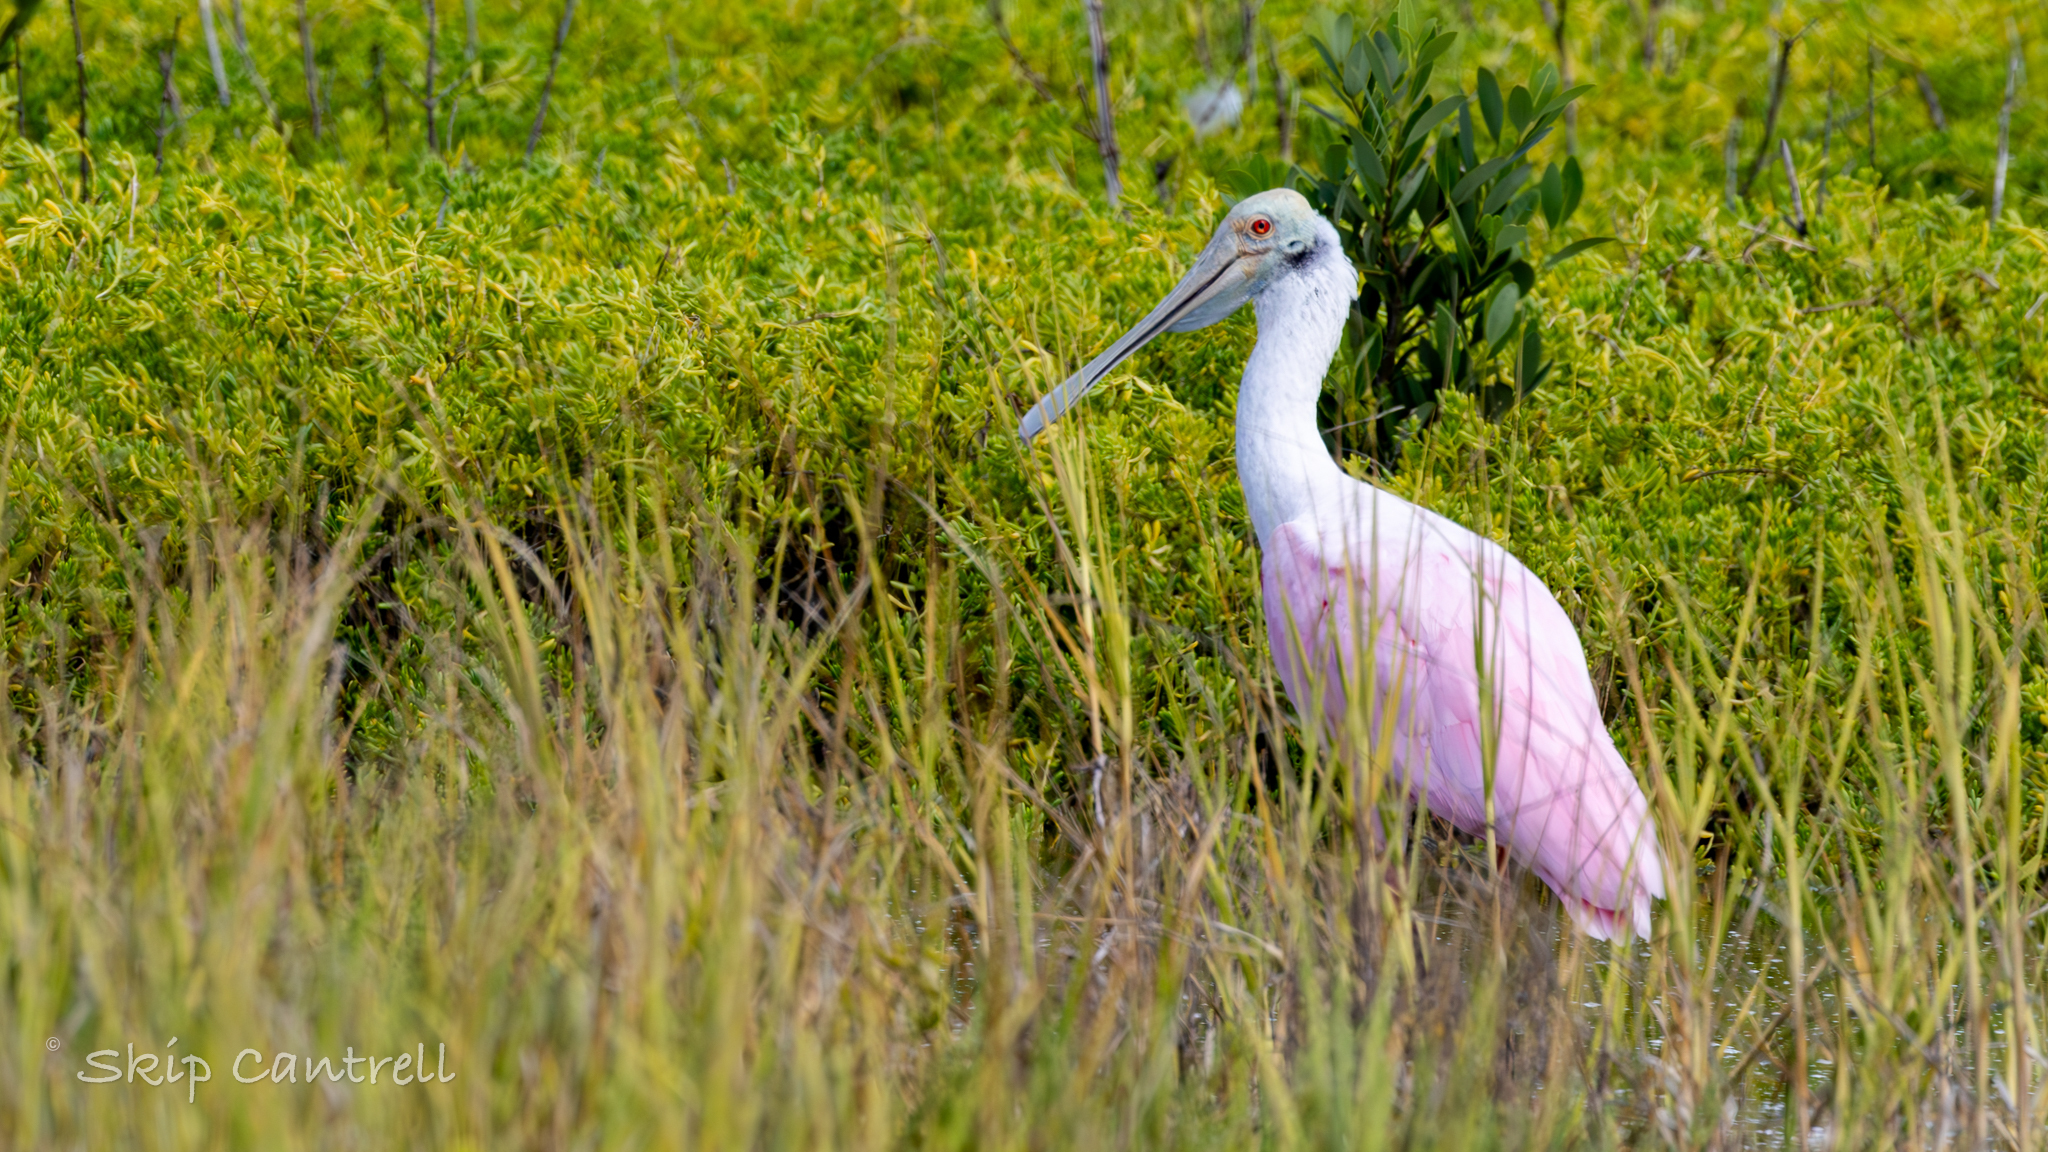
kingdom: Animalia
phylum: Chordata
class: Aves
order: Pelecaniformes
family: Threskiornithidae
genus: Platalea
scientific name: Platalea ajaja
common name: Roseate spoonbill
